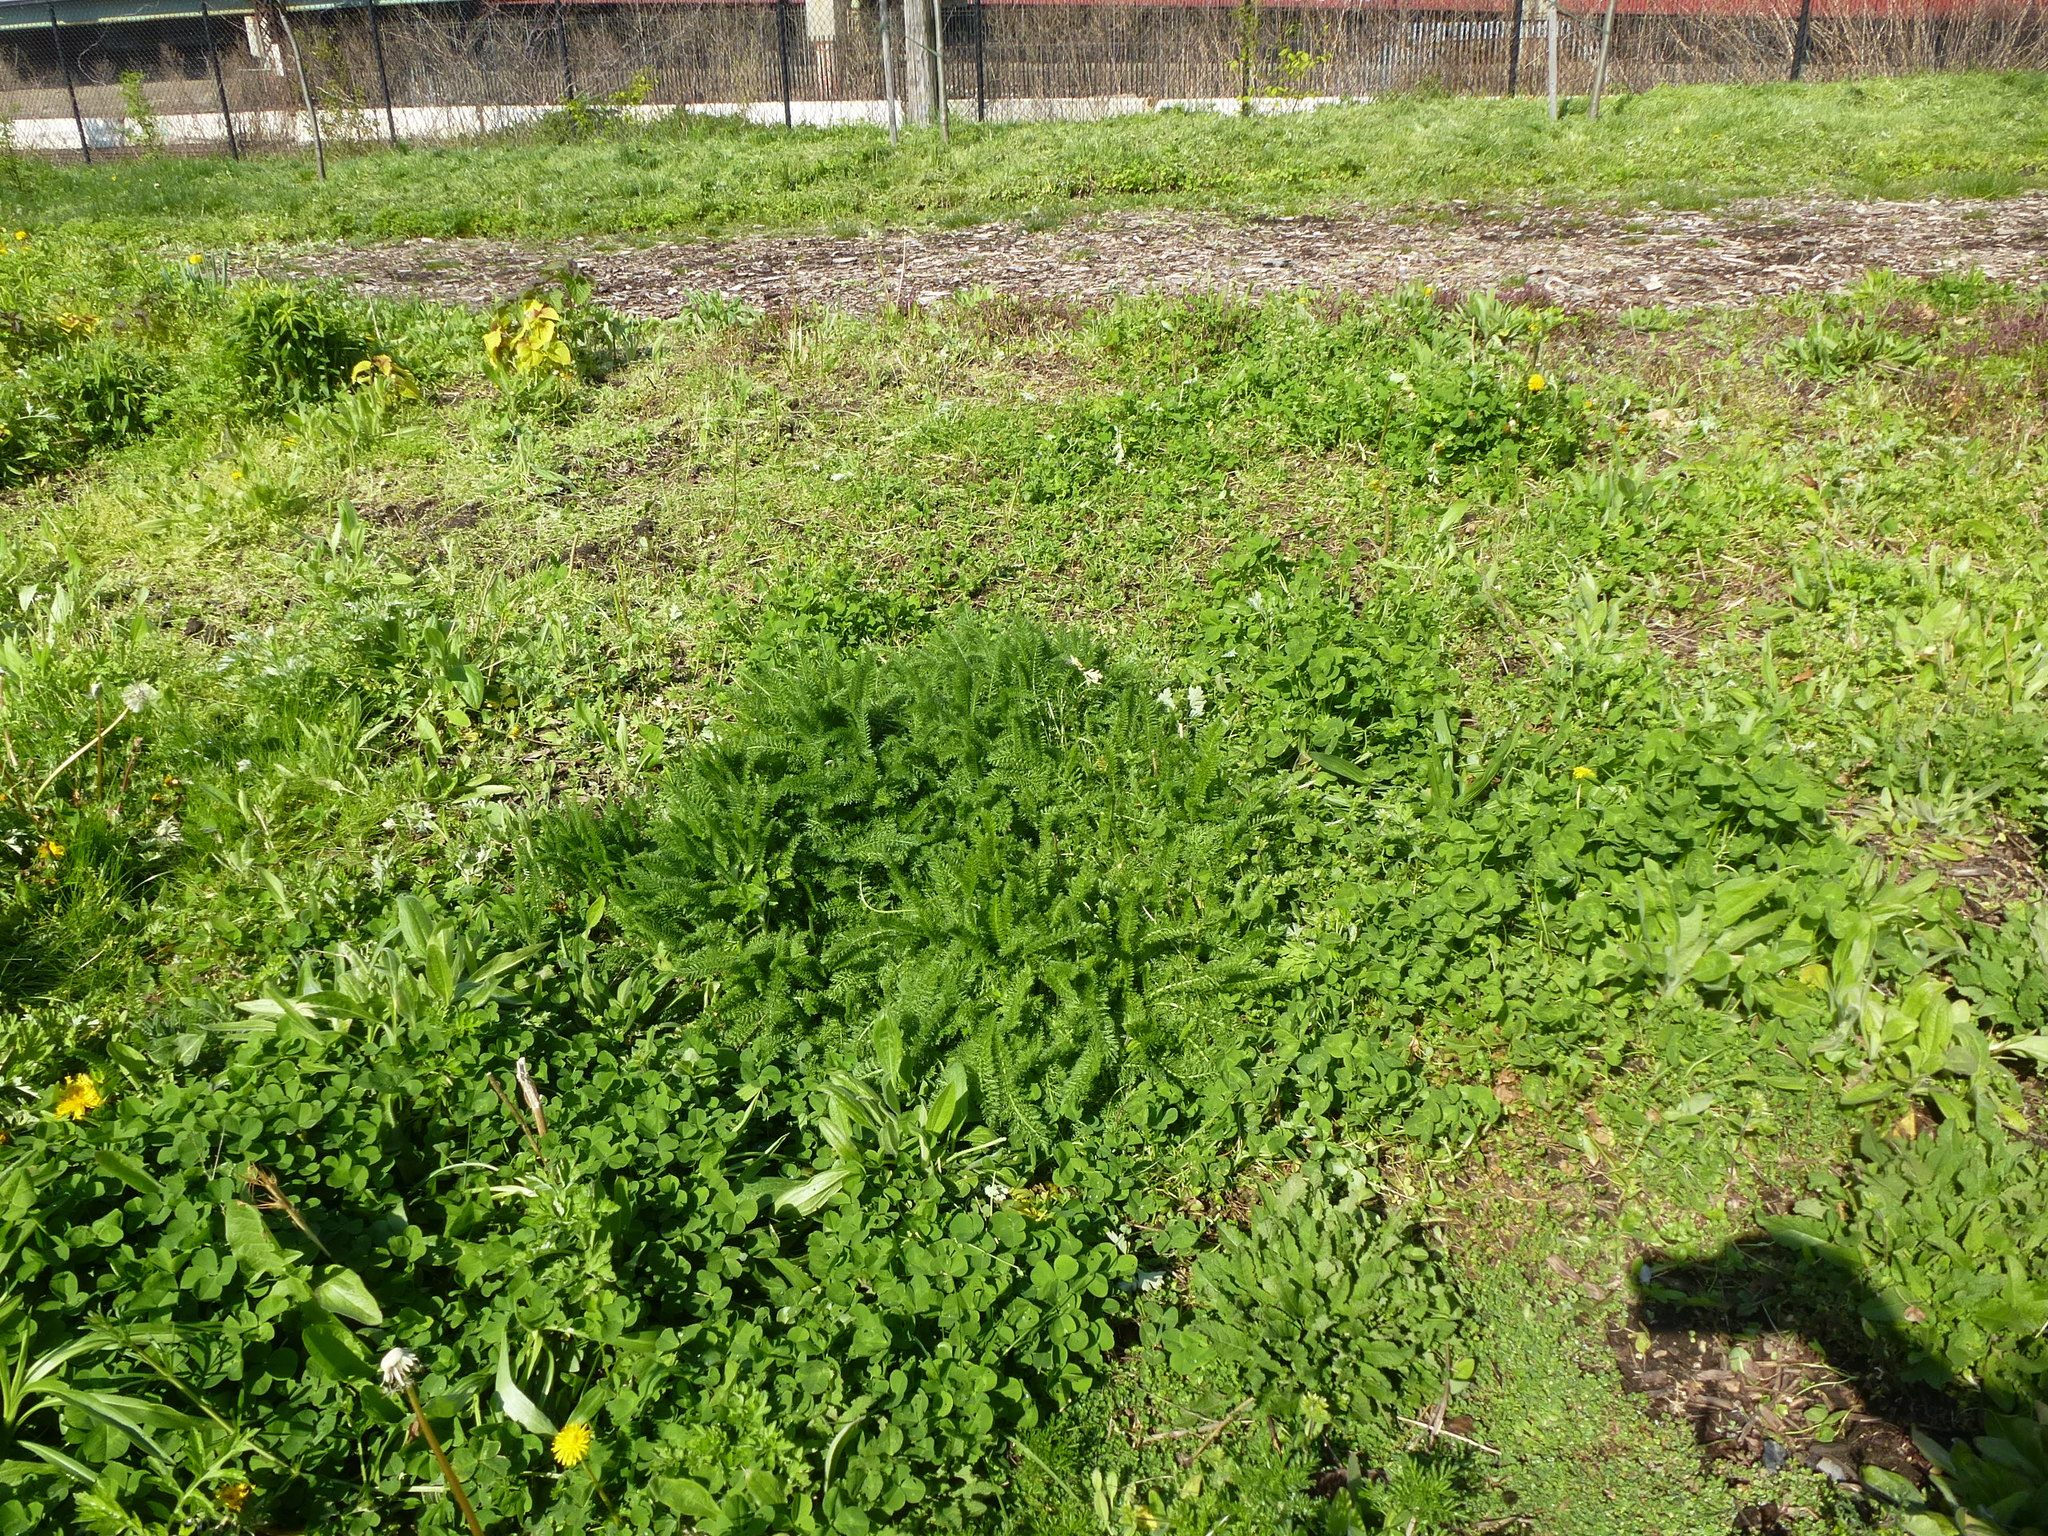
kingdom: Plantae
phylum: Tracheophyta
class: Magnoliopsida
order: Asterales
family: Asteraceae
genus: Achillea
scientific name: Achillea millefolium
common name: Yarrow
